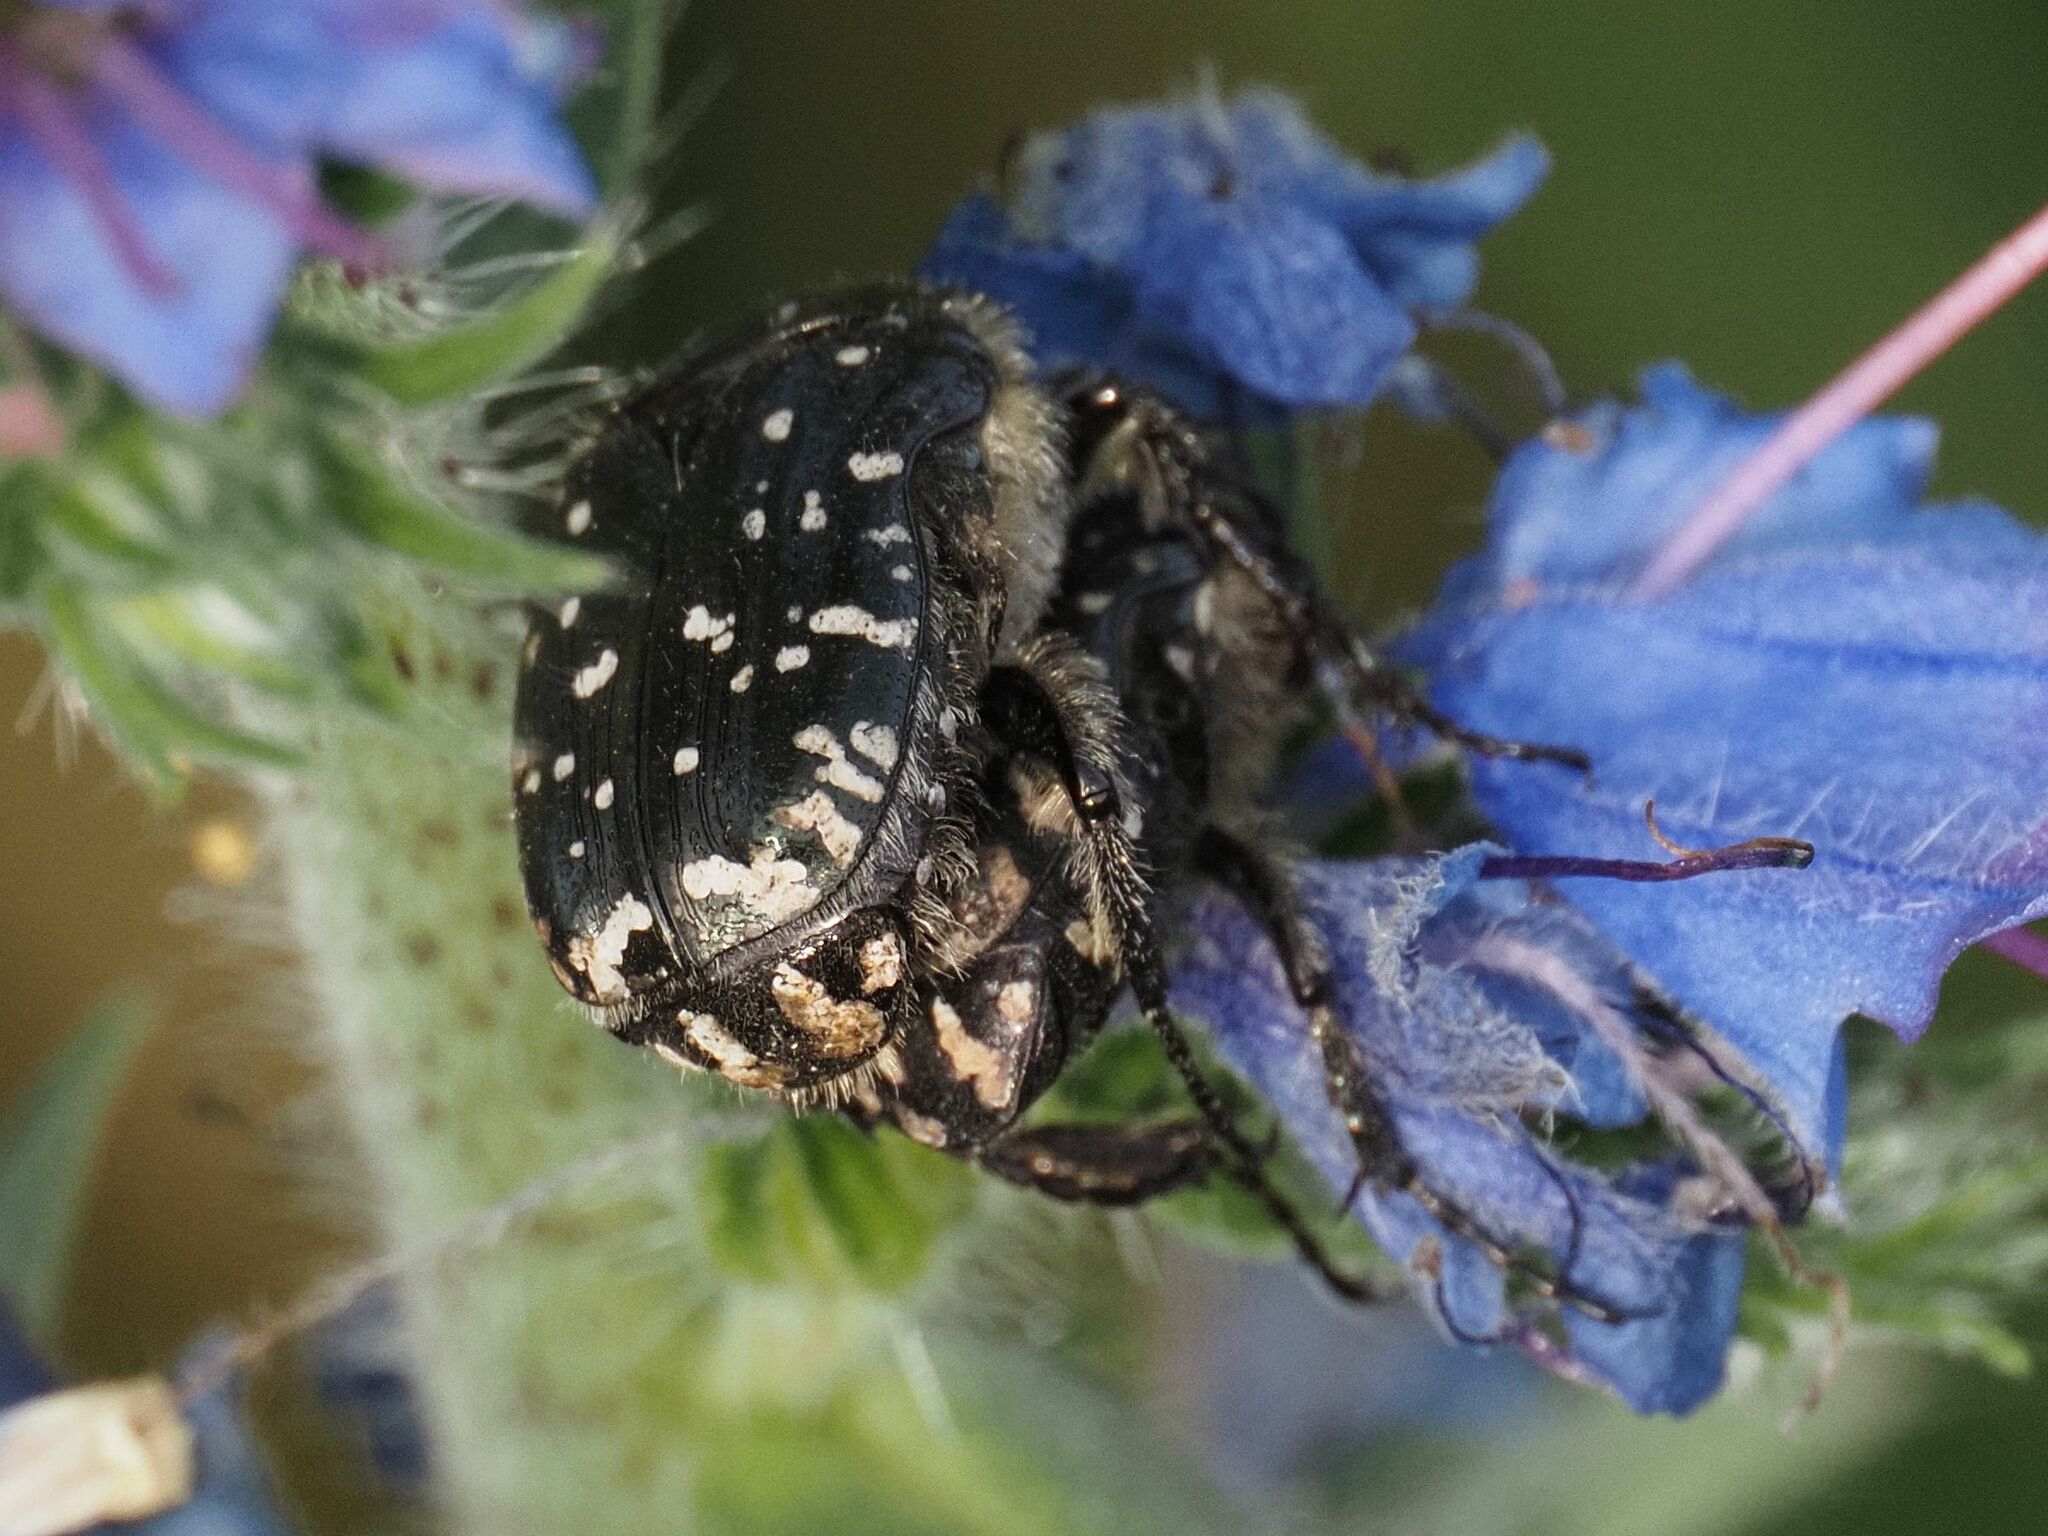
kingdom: Animalia
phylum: Arthropoda
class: Insecta
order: Coleoptera
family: Scarabaeidae
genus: Oxythyrea
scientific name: Oxythyrea funesta
